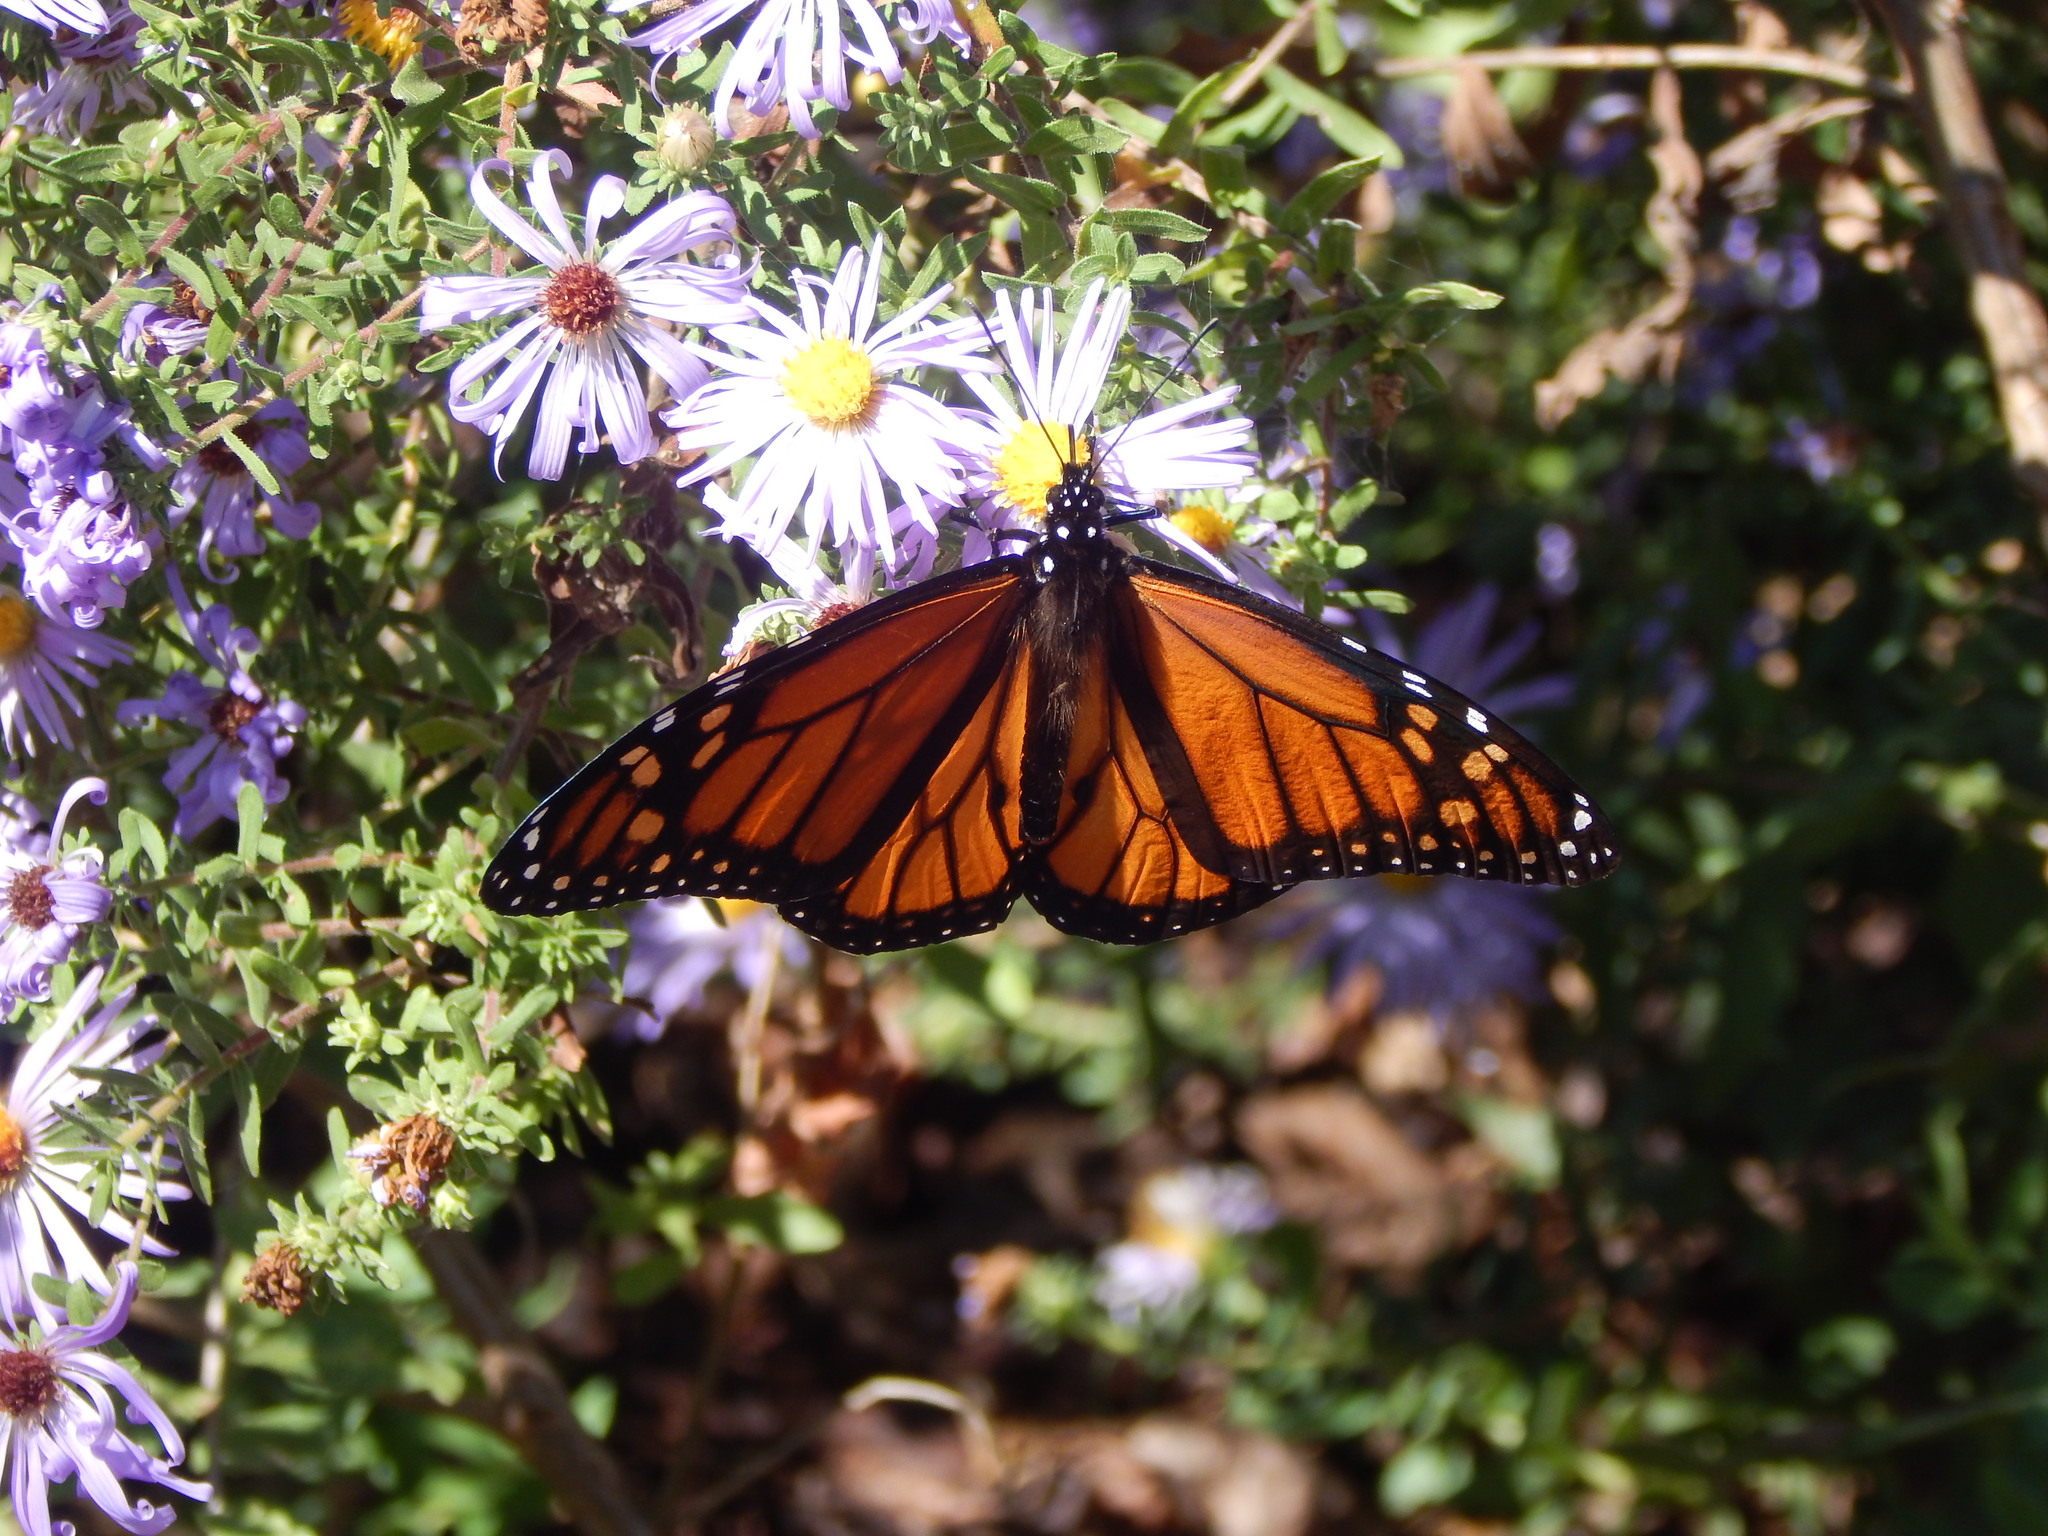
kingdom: Animalia
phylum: Arthropoda
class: Insecta
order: Lepidoptera
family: Nymphalidae
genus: Danaus
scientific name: Danaus plexippus
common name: Monarch
